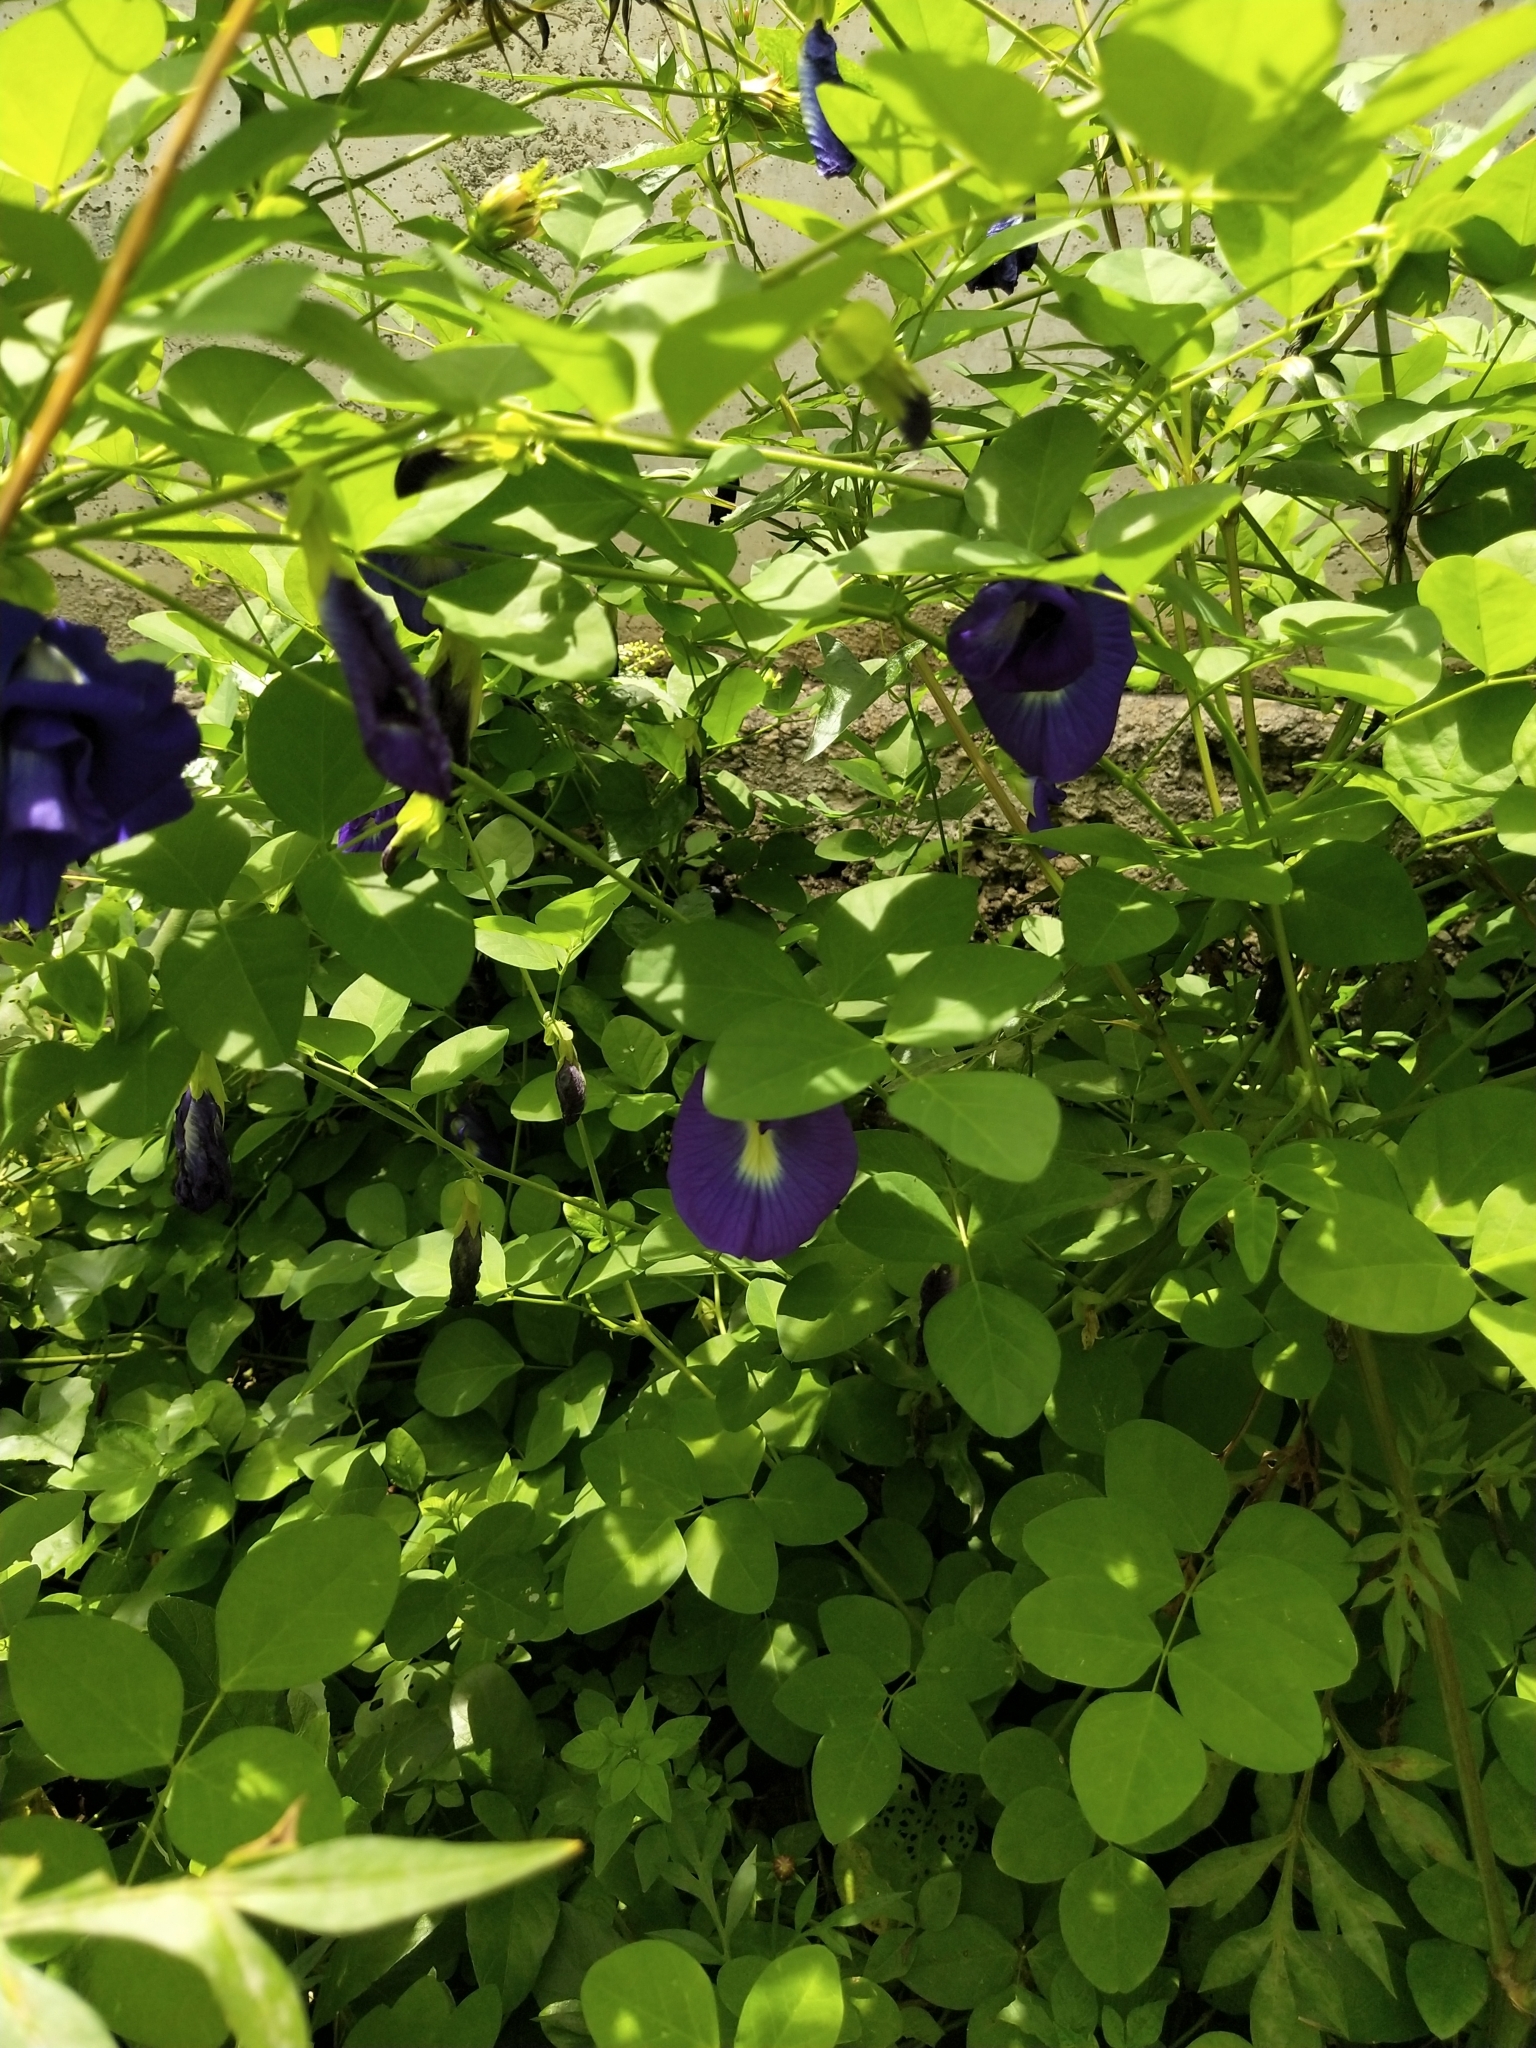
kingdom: Plantae
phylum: Tracheophyta
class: Magnoliopsida
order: Fabales
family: Fabaceae
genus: Clitoria
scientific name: Clitoria ternatea
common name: Asian pigeonwings
